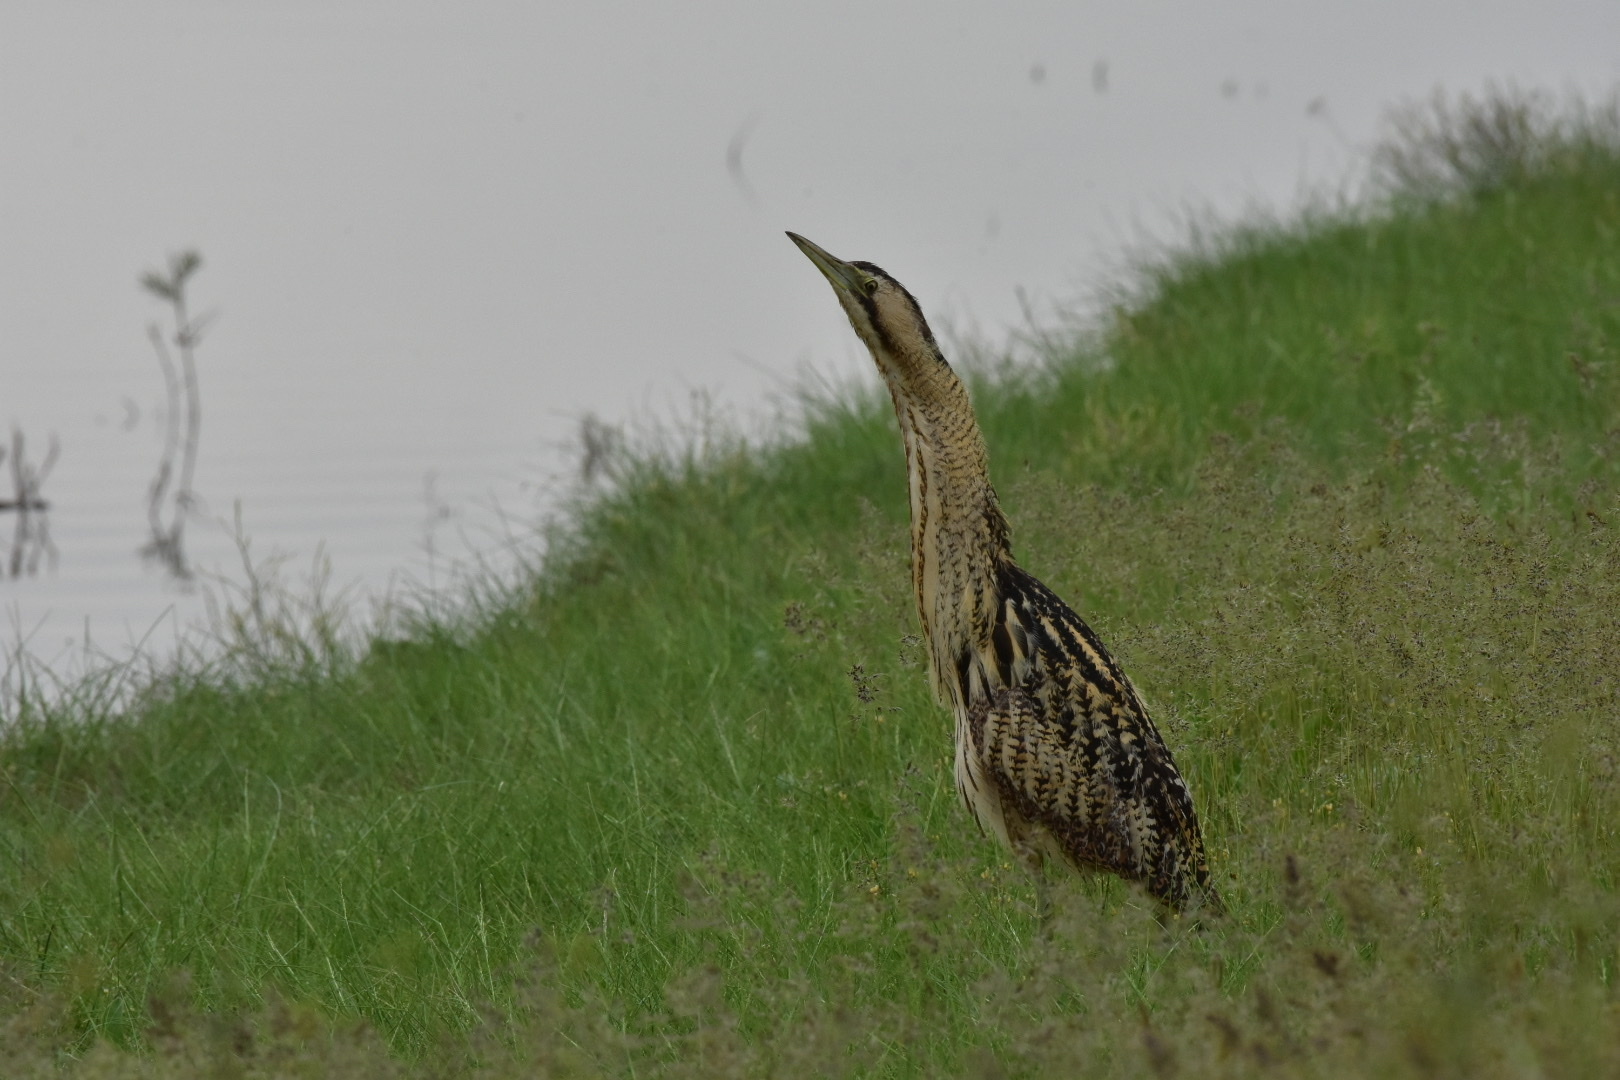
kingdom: Animalia
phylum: Chordata
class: Aves
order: Pelecaniformes
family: Ardeidae
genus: Botaurus
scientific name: Botaurus stellaris
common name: Eurasian bittern
